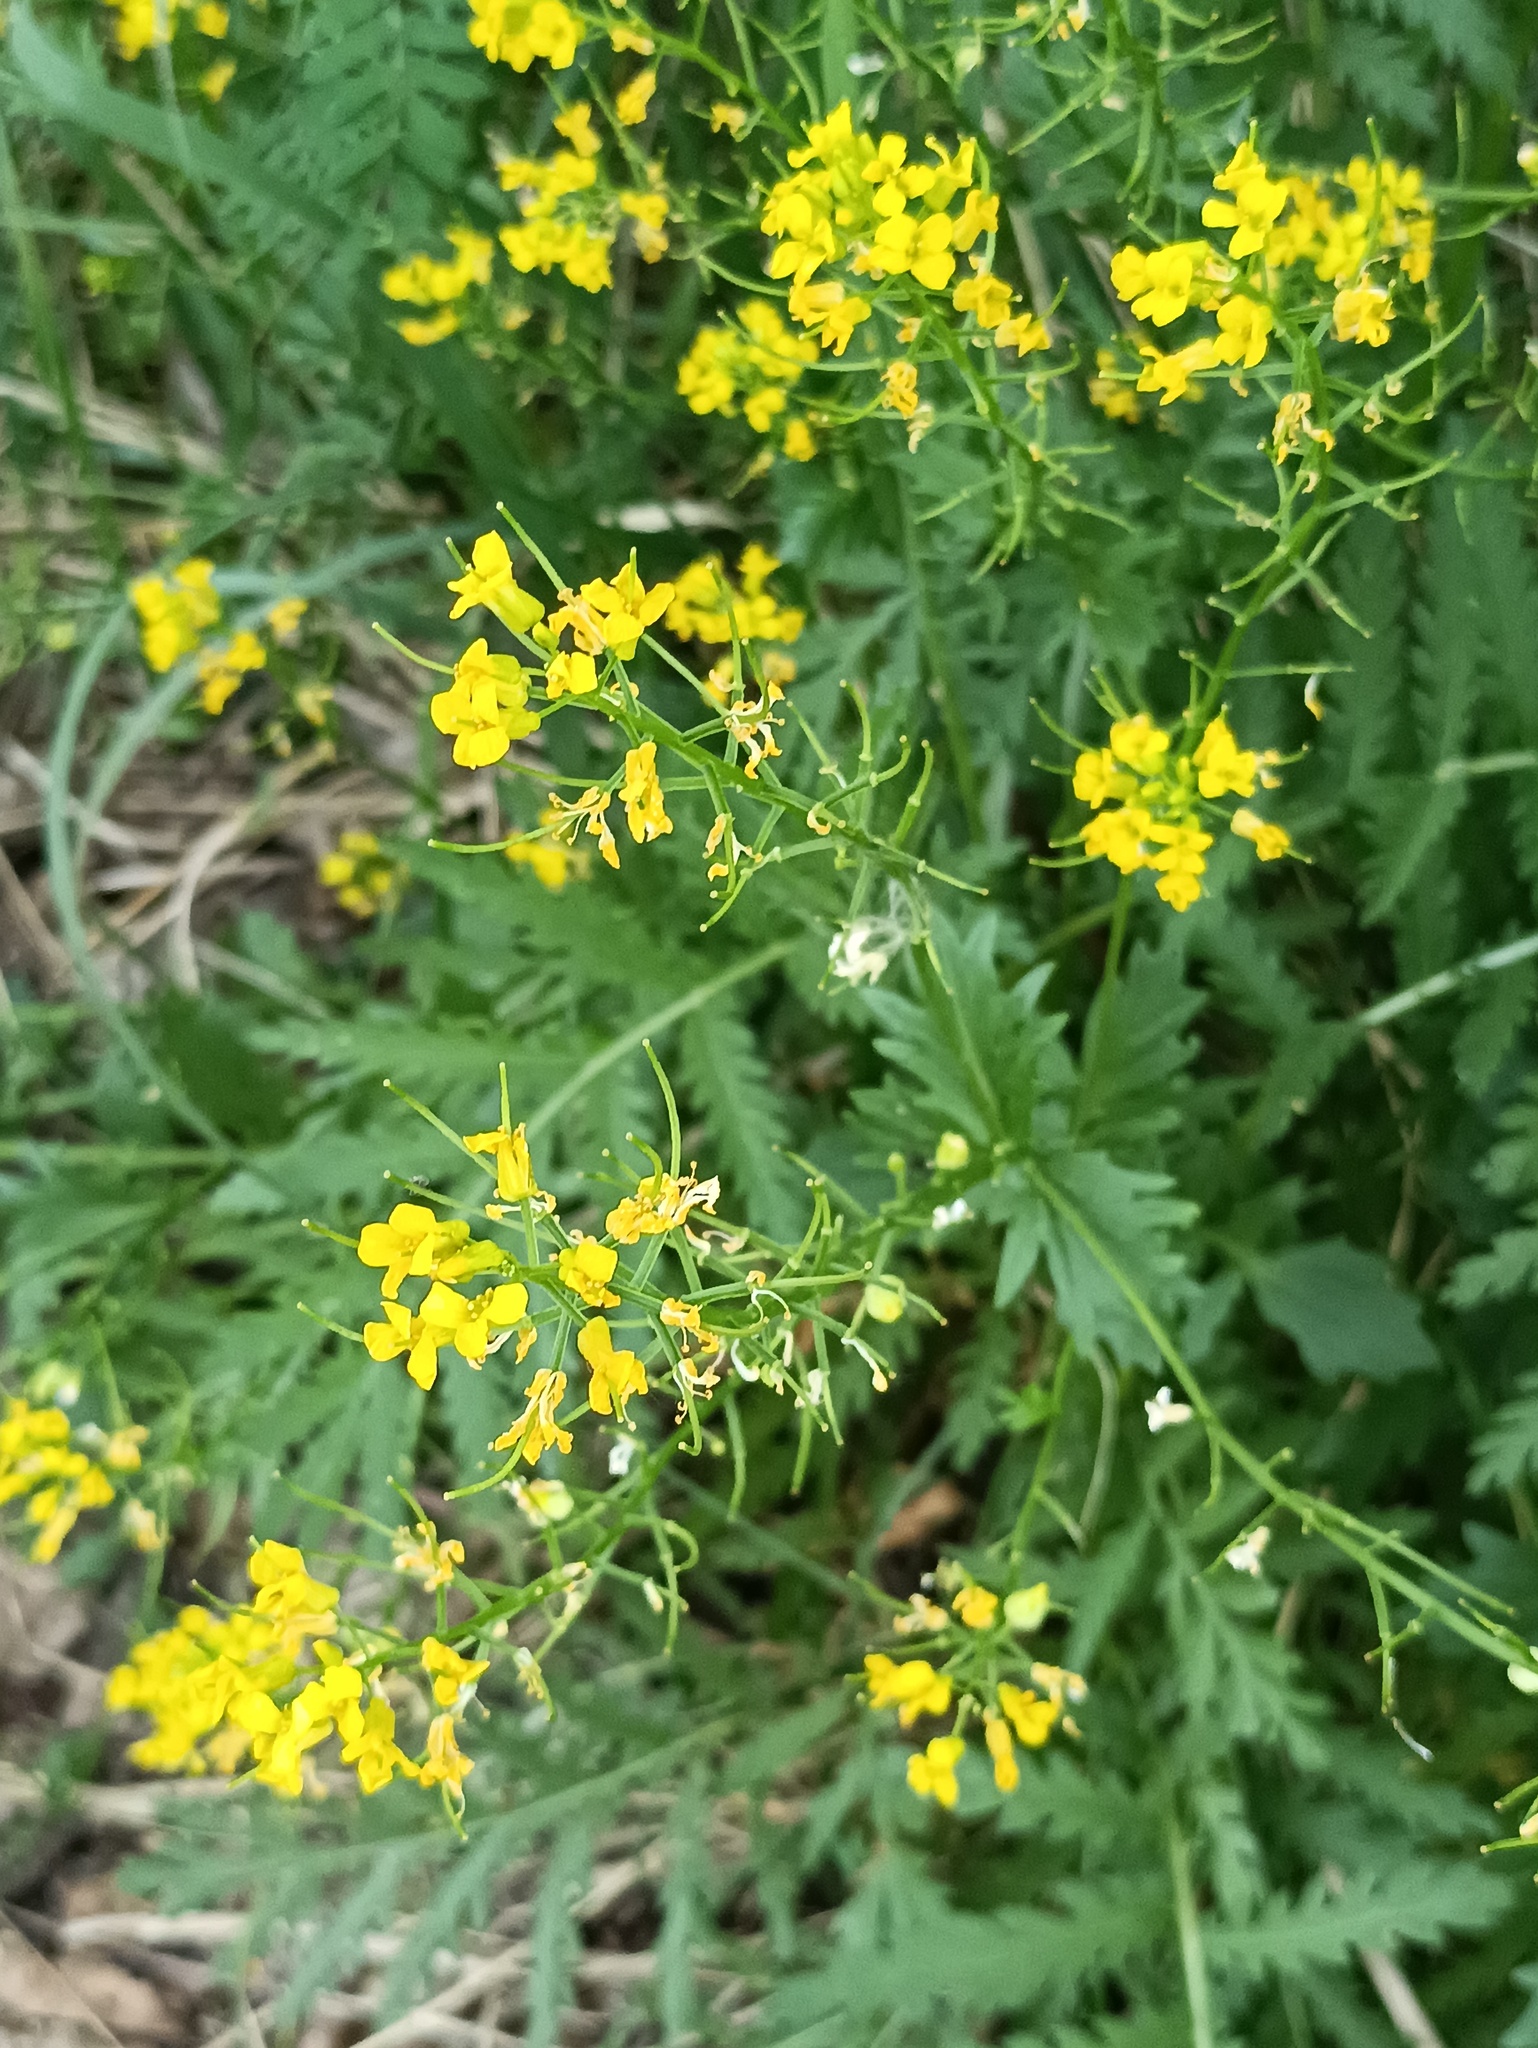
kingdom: Plantae
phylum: Tracheophyta
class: Magnoliopsida
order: Brassicales
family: Brassicaceae
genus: Barbarea
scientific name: Barbarea vulgaris
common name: Cressy-greens
